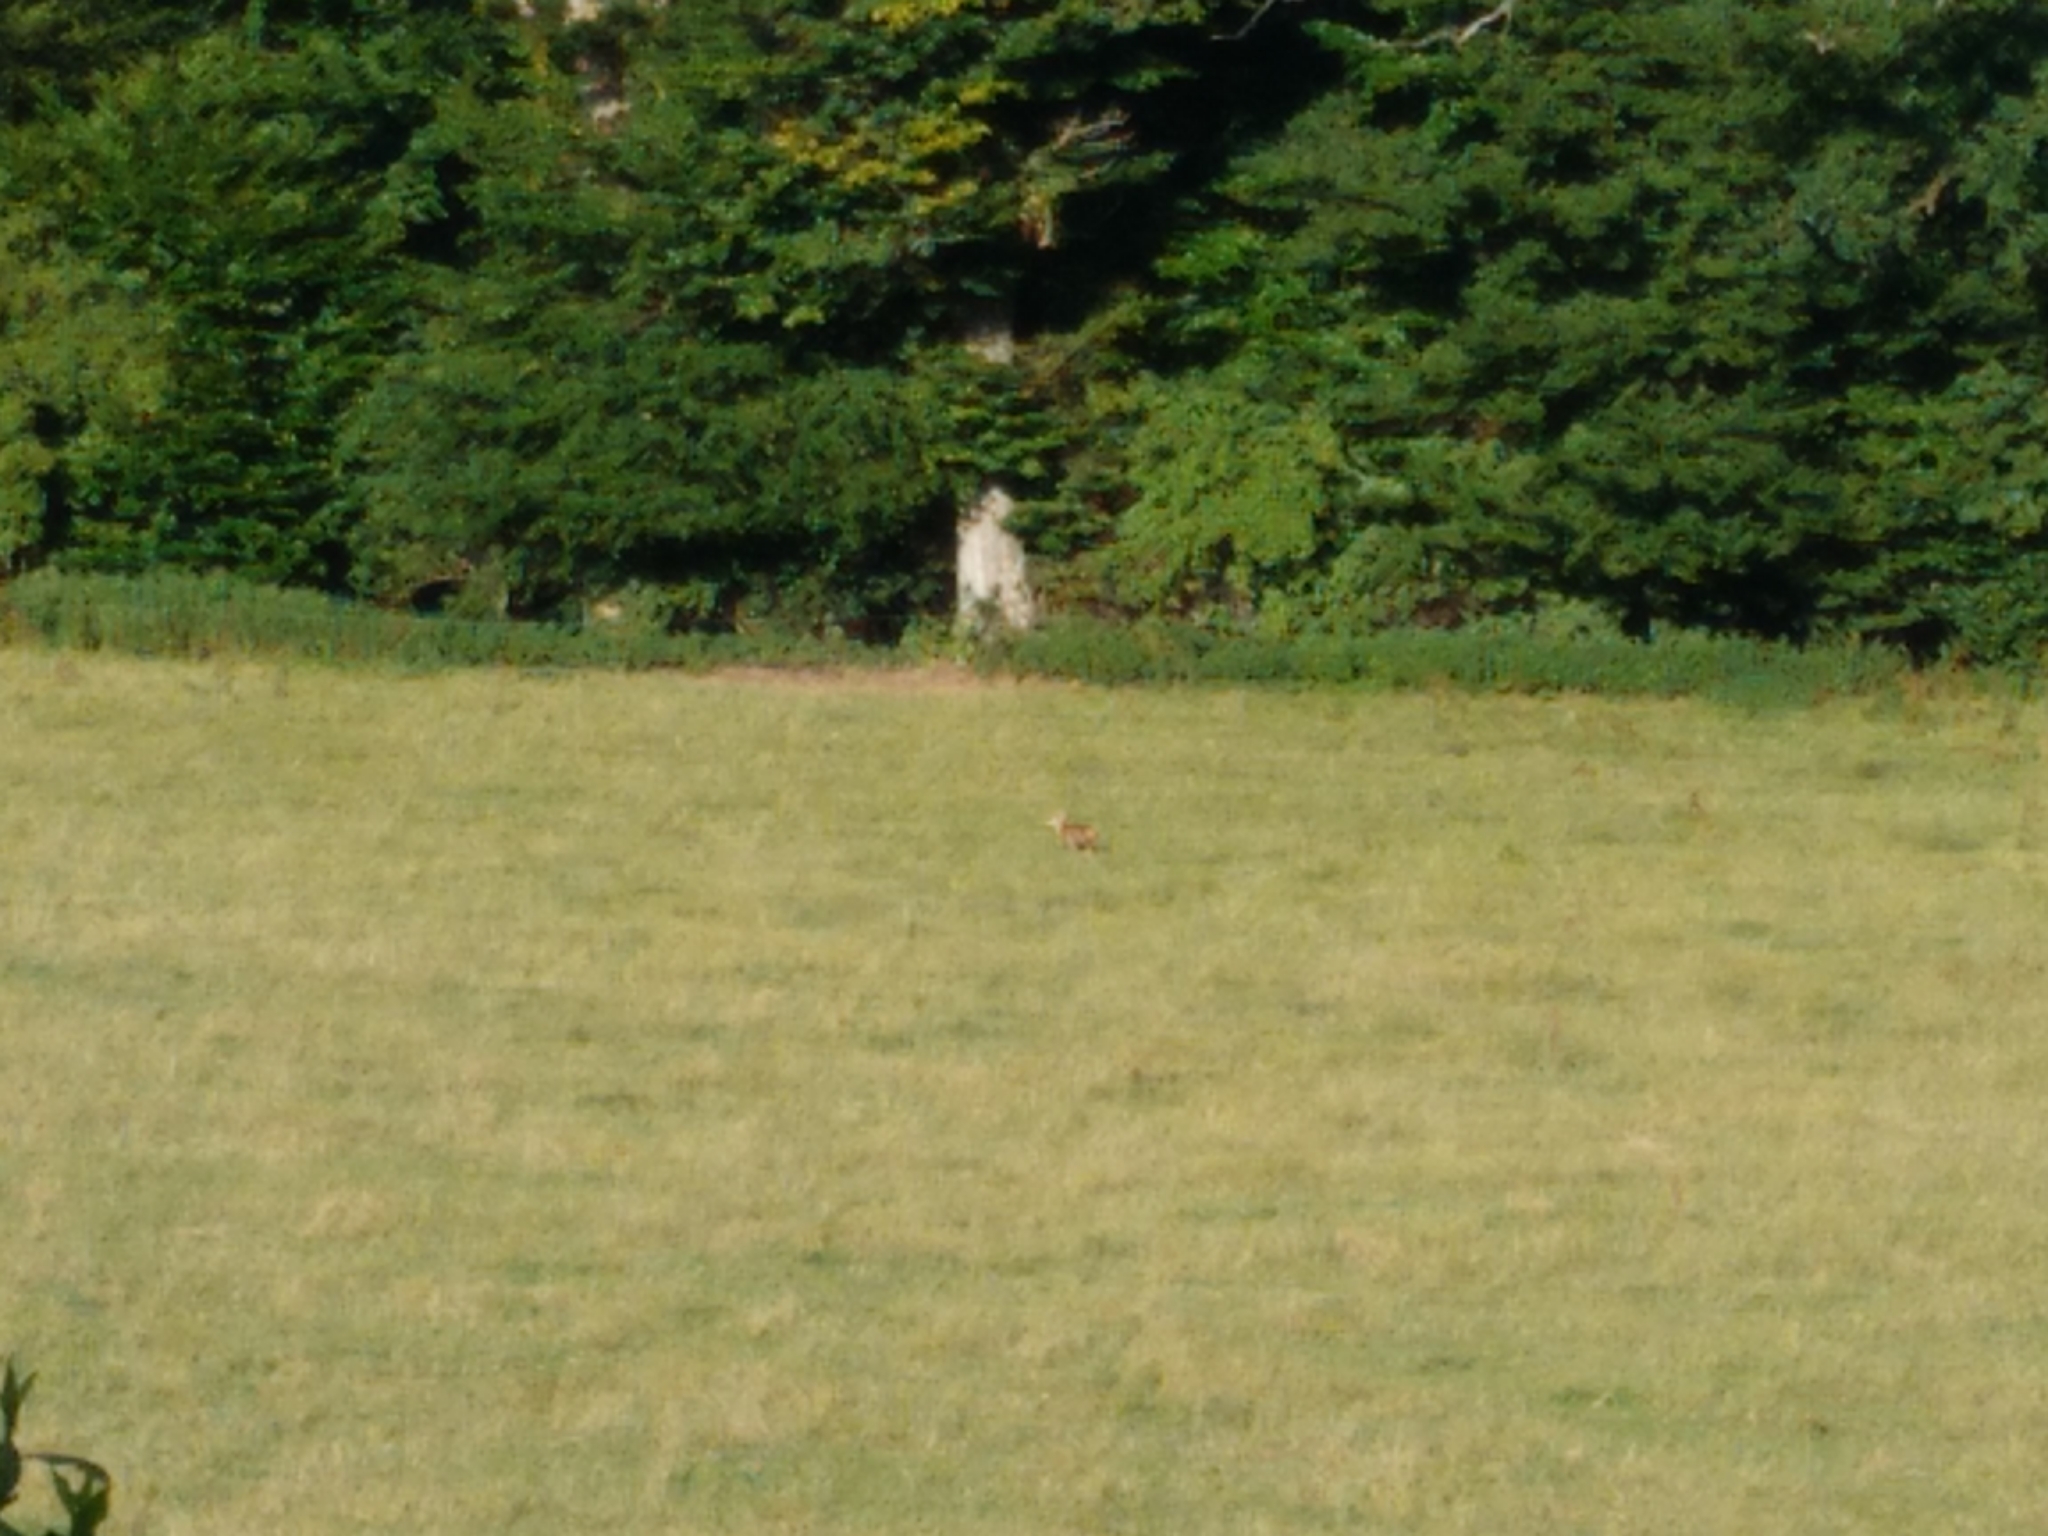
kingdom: Animalia
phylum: Chordata
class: Mammalia
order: Carnivora
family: Canidae
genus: Vulpes
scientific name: Vulpes vulpes
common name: Red fox
